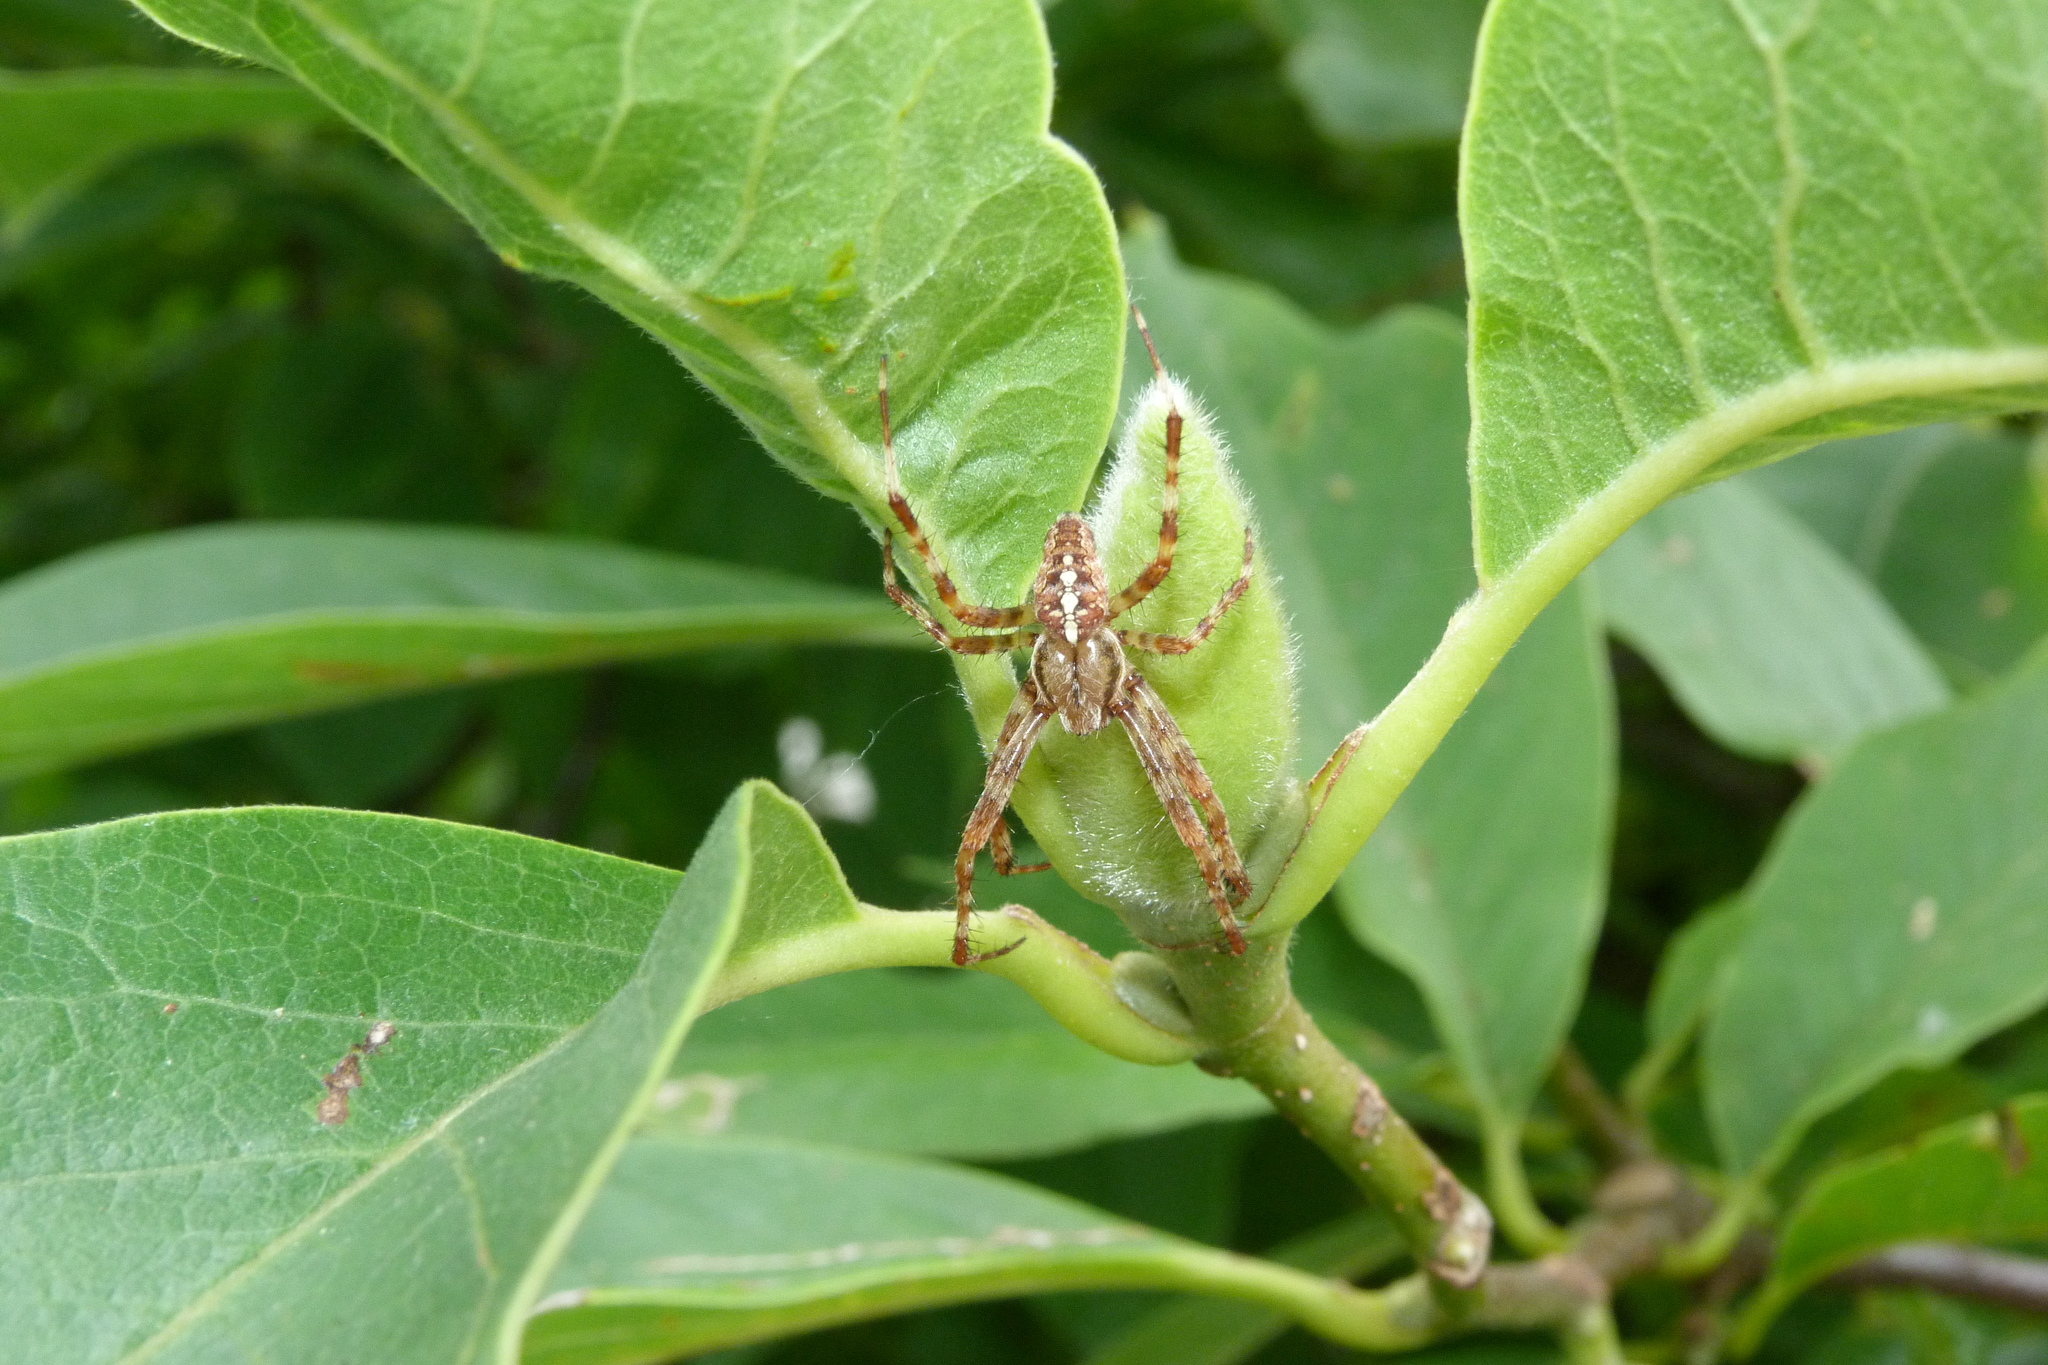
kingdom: Animalia
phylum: Arthropoda
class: Arachnida
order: Araneae
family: Araneidae
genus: Araneus
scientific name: Araneus diadematus
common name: Cross orbweaver
